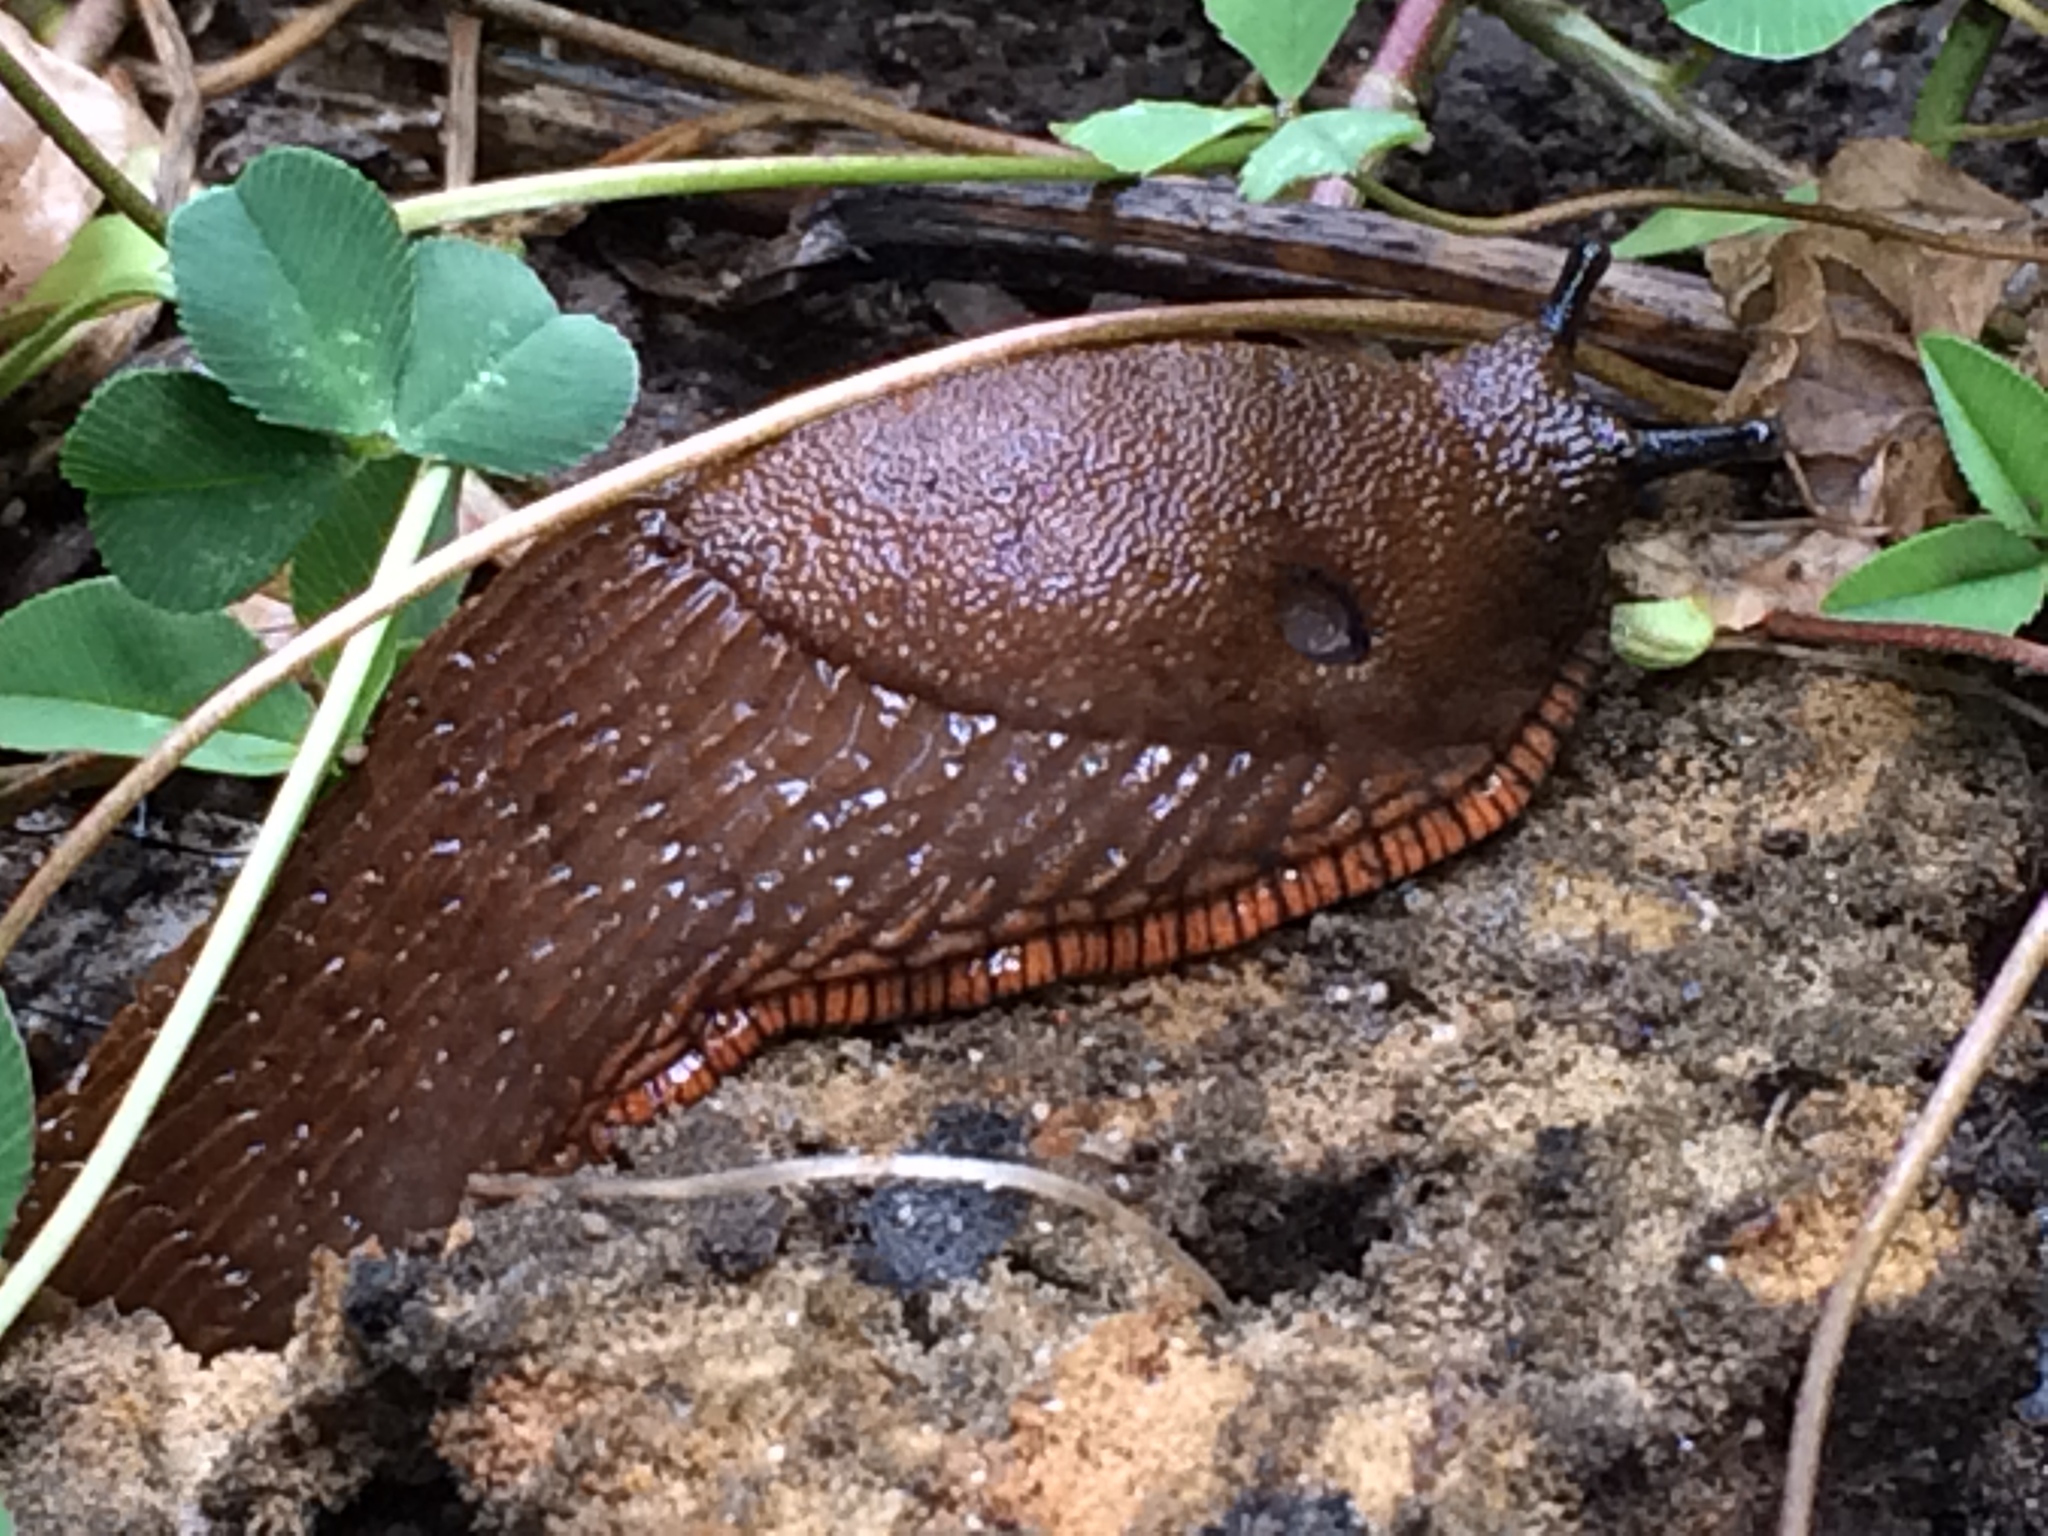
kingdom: Animalia
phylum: Mollusca
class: Gastropoda
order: Stylommatophora
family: Arionidae
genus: Arion
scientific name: Arion rufus
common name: Chocolate arion
